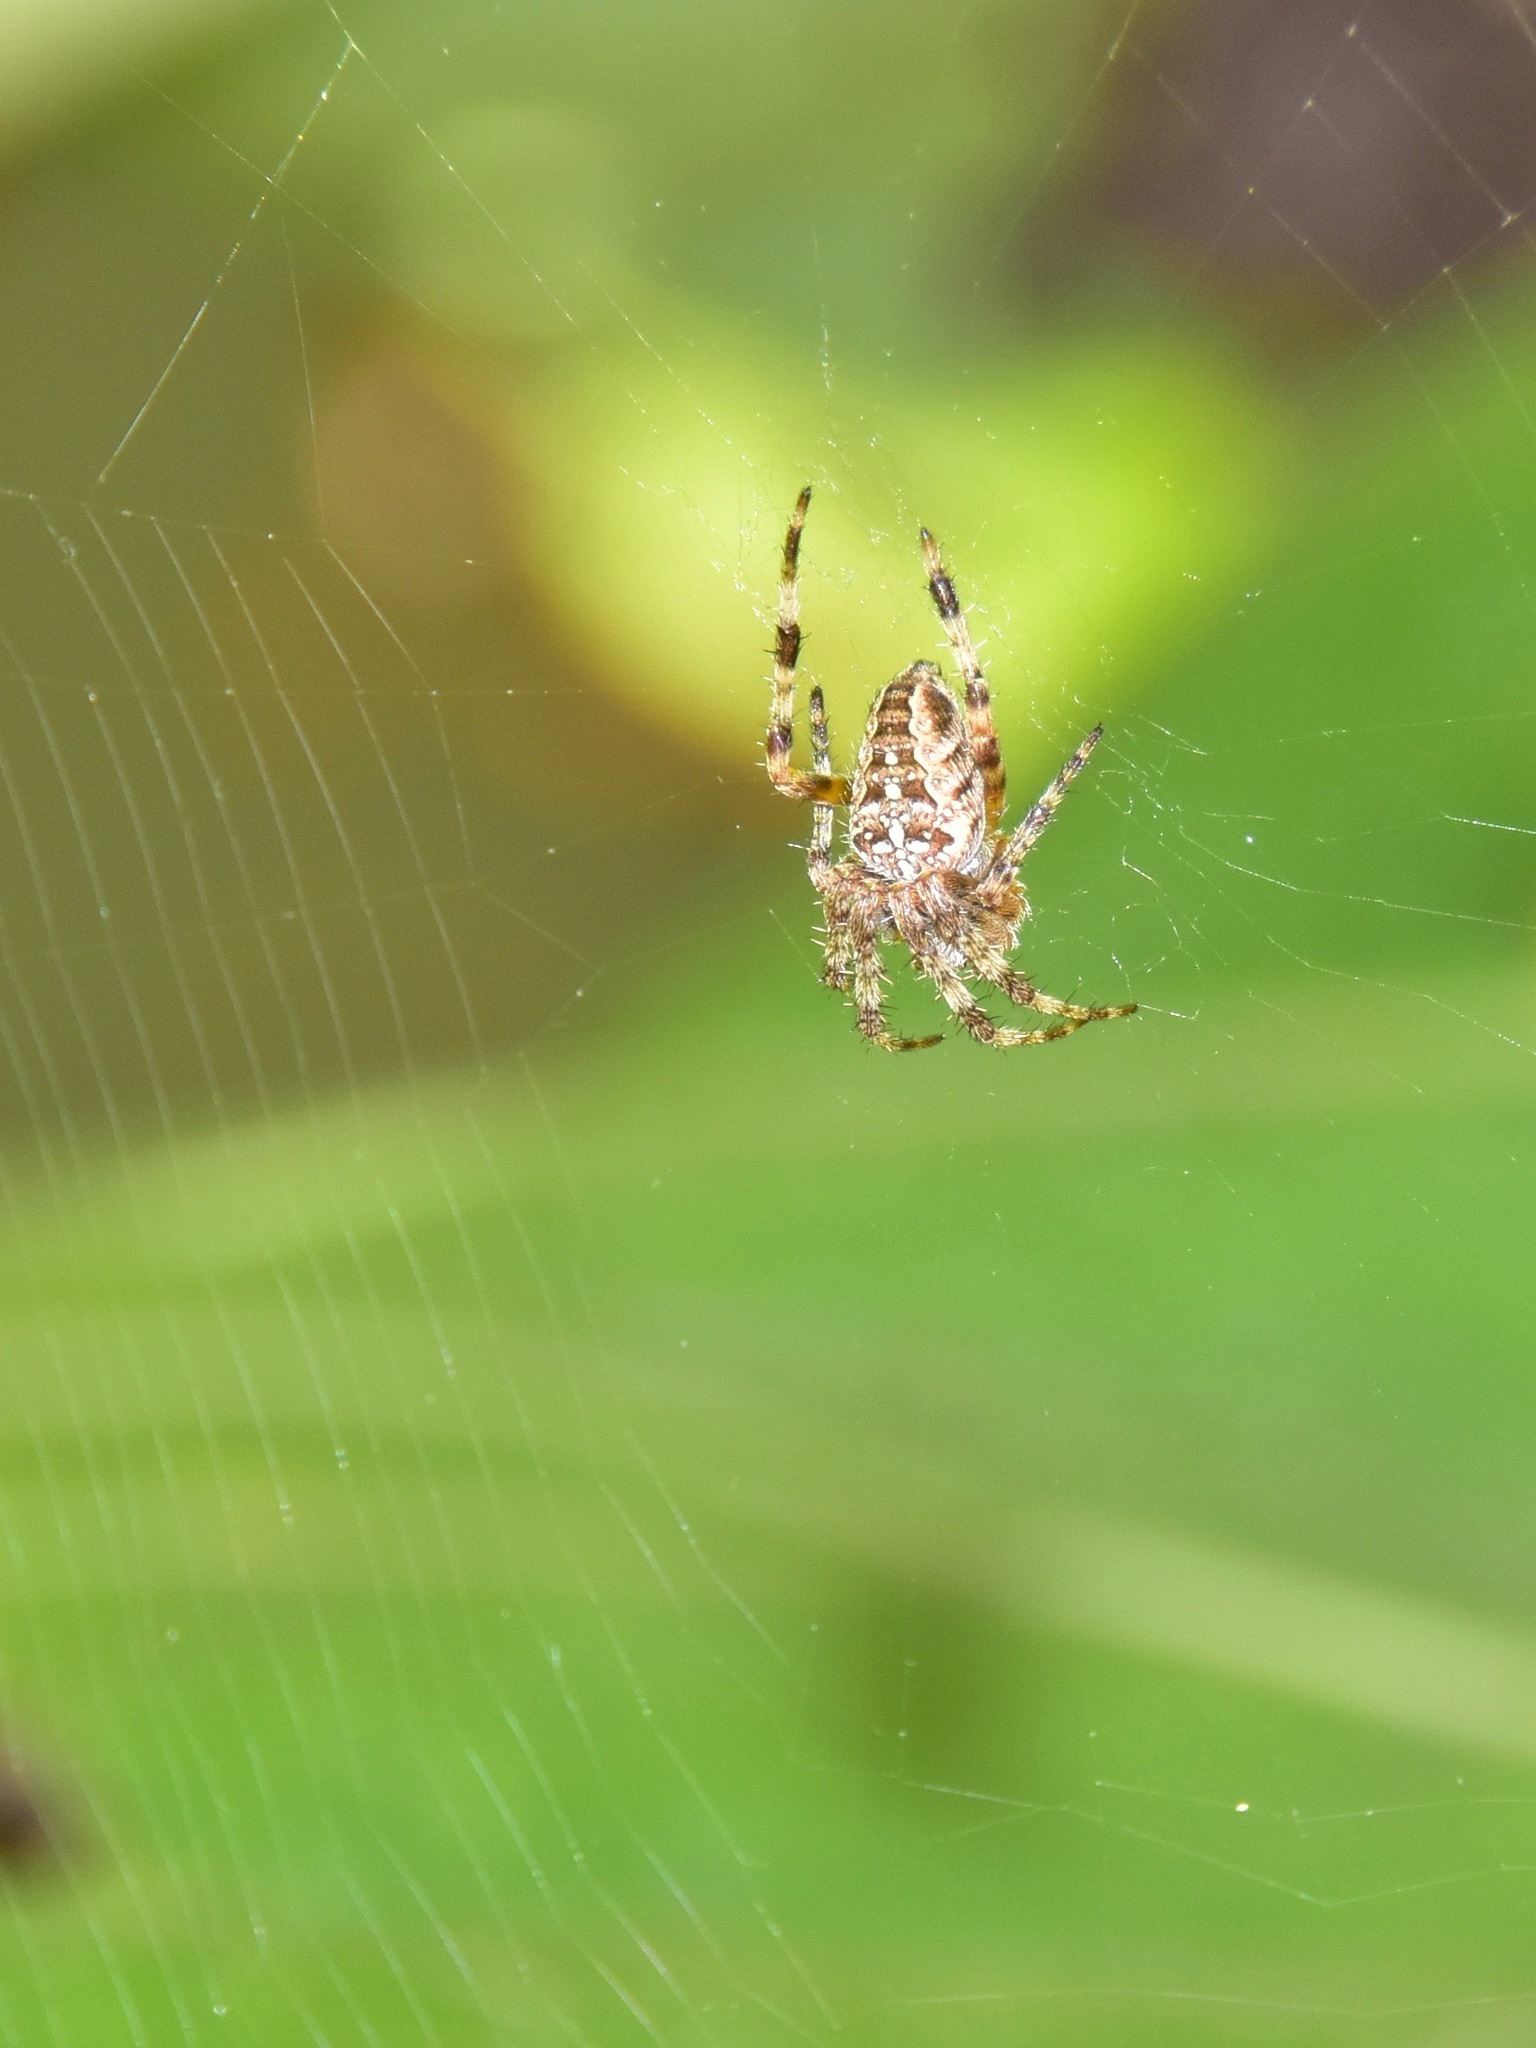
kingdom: Animalia
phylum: Arthropoda
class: Arachnida
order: Araneae
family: Araneidae
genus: Araneus
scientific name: Araneus diadematus
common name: Cross orbweaver
